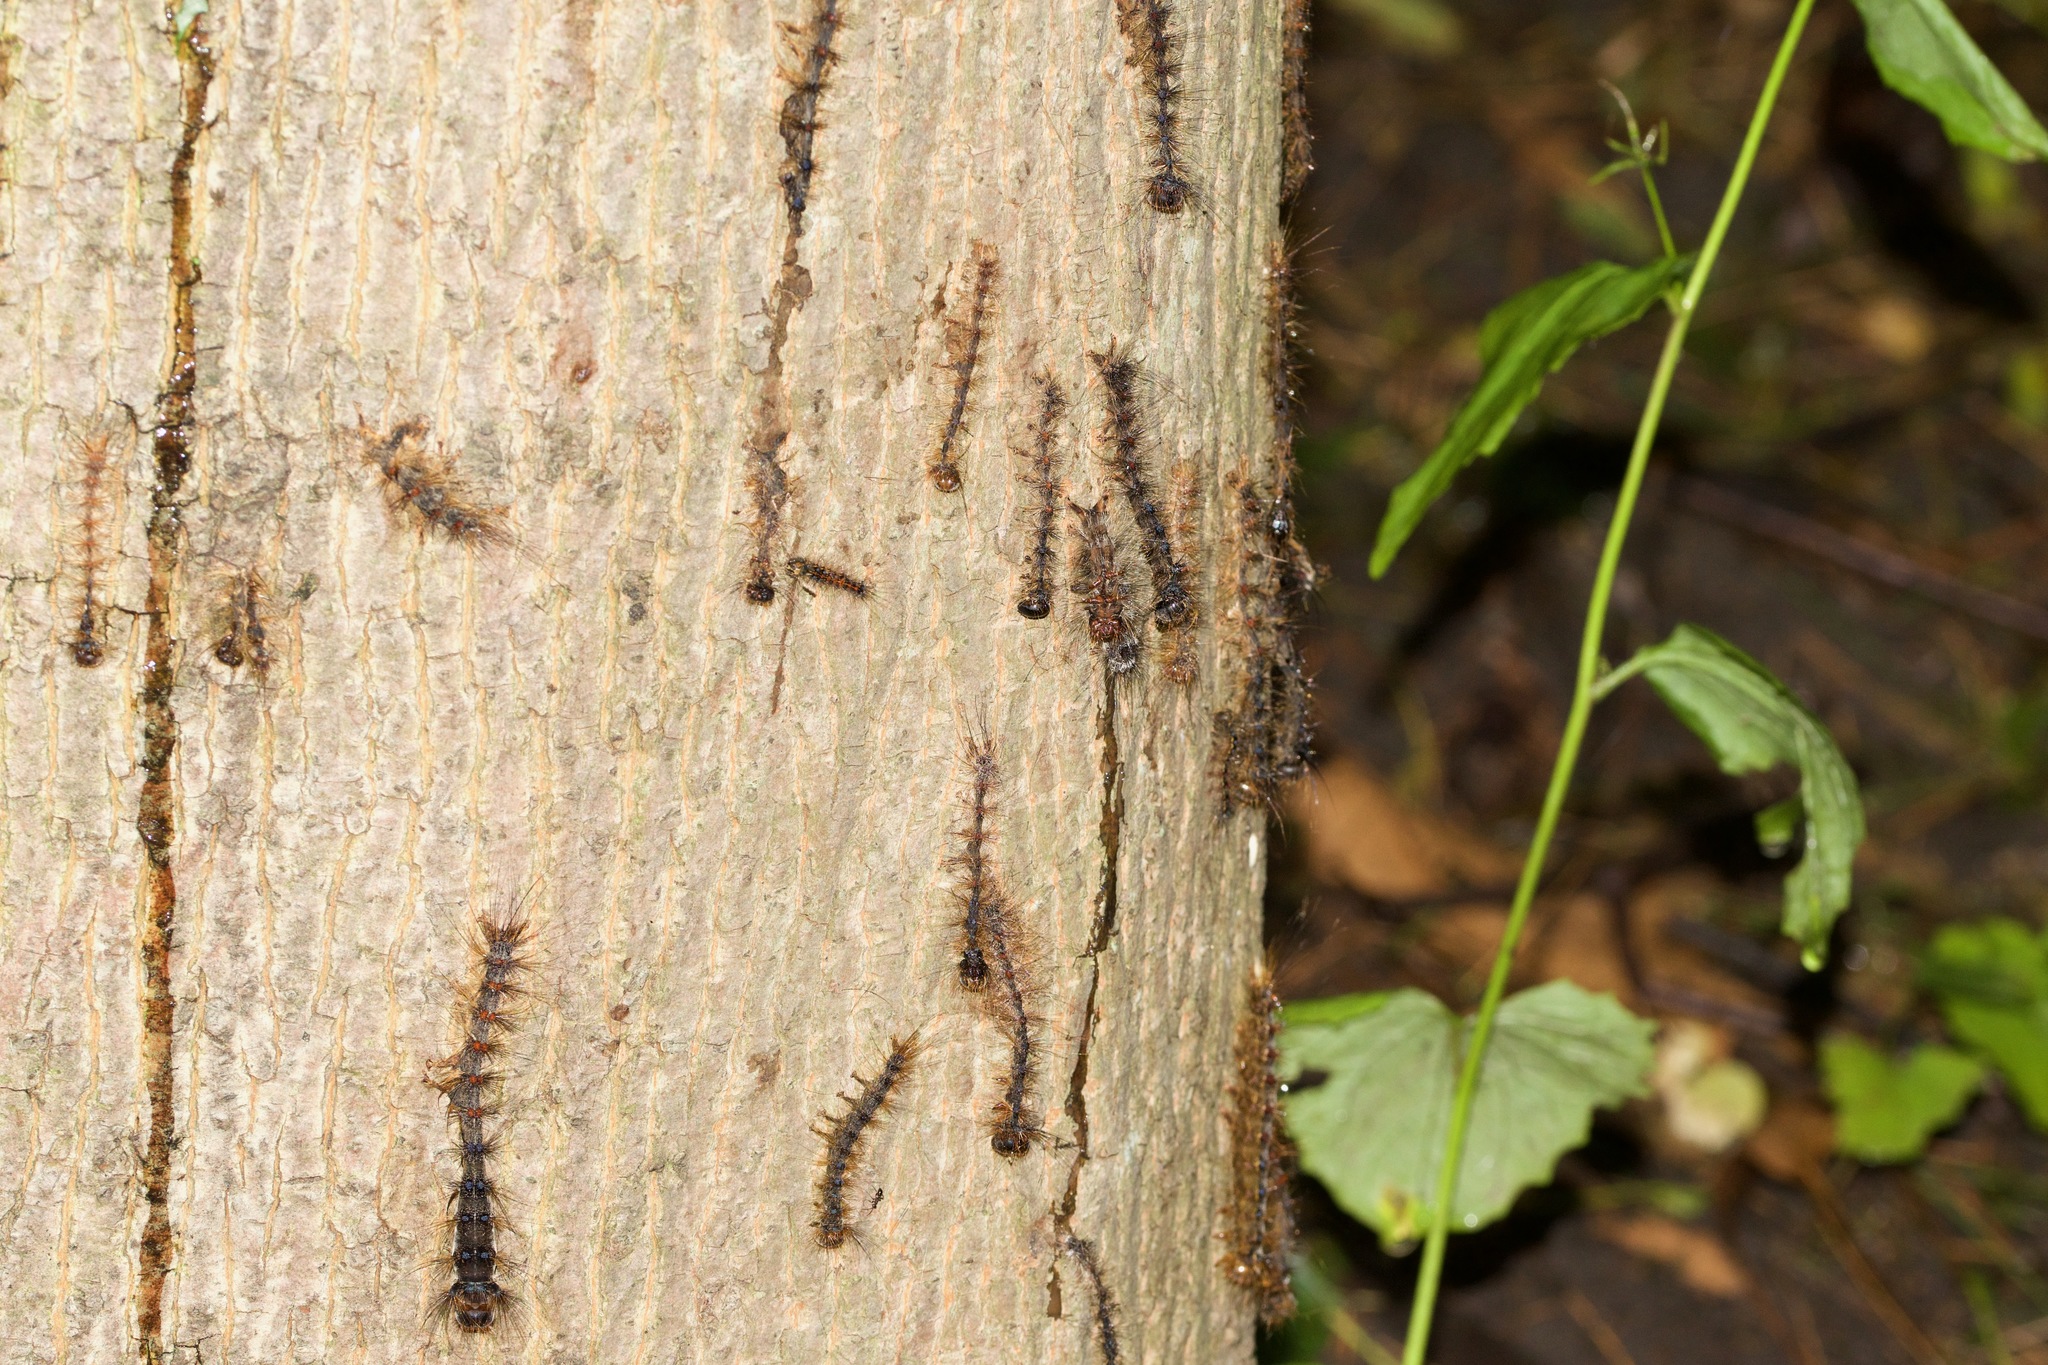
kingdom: Fungi
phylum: Entomophthoromycota
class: Entomophthoromycetes
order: Entomophthorales
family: Entomophthoraceae
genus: Entomophaga
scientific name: Entomophaga maimaiga
